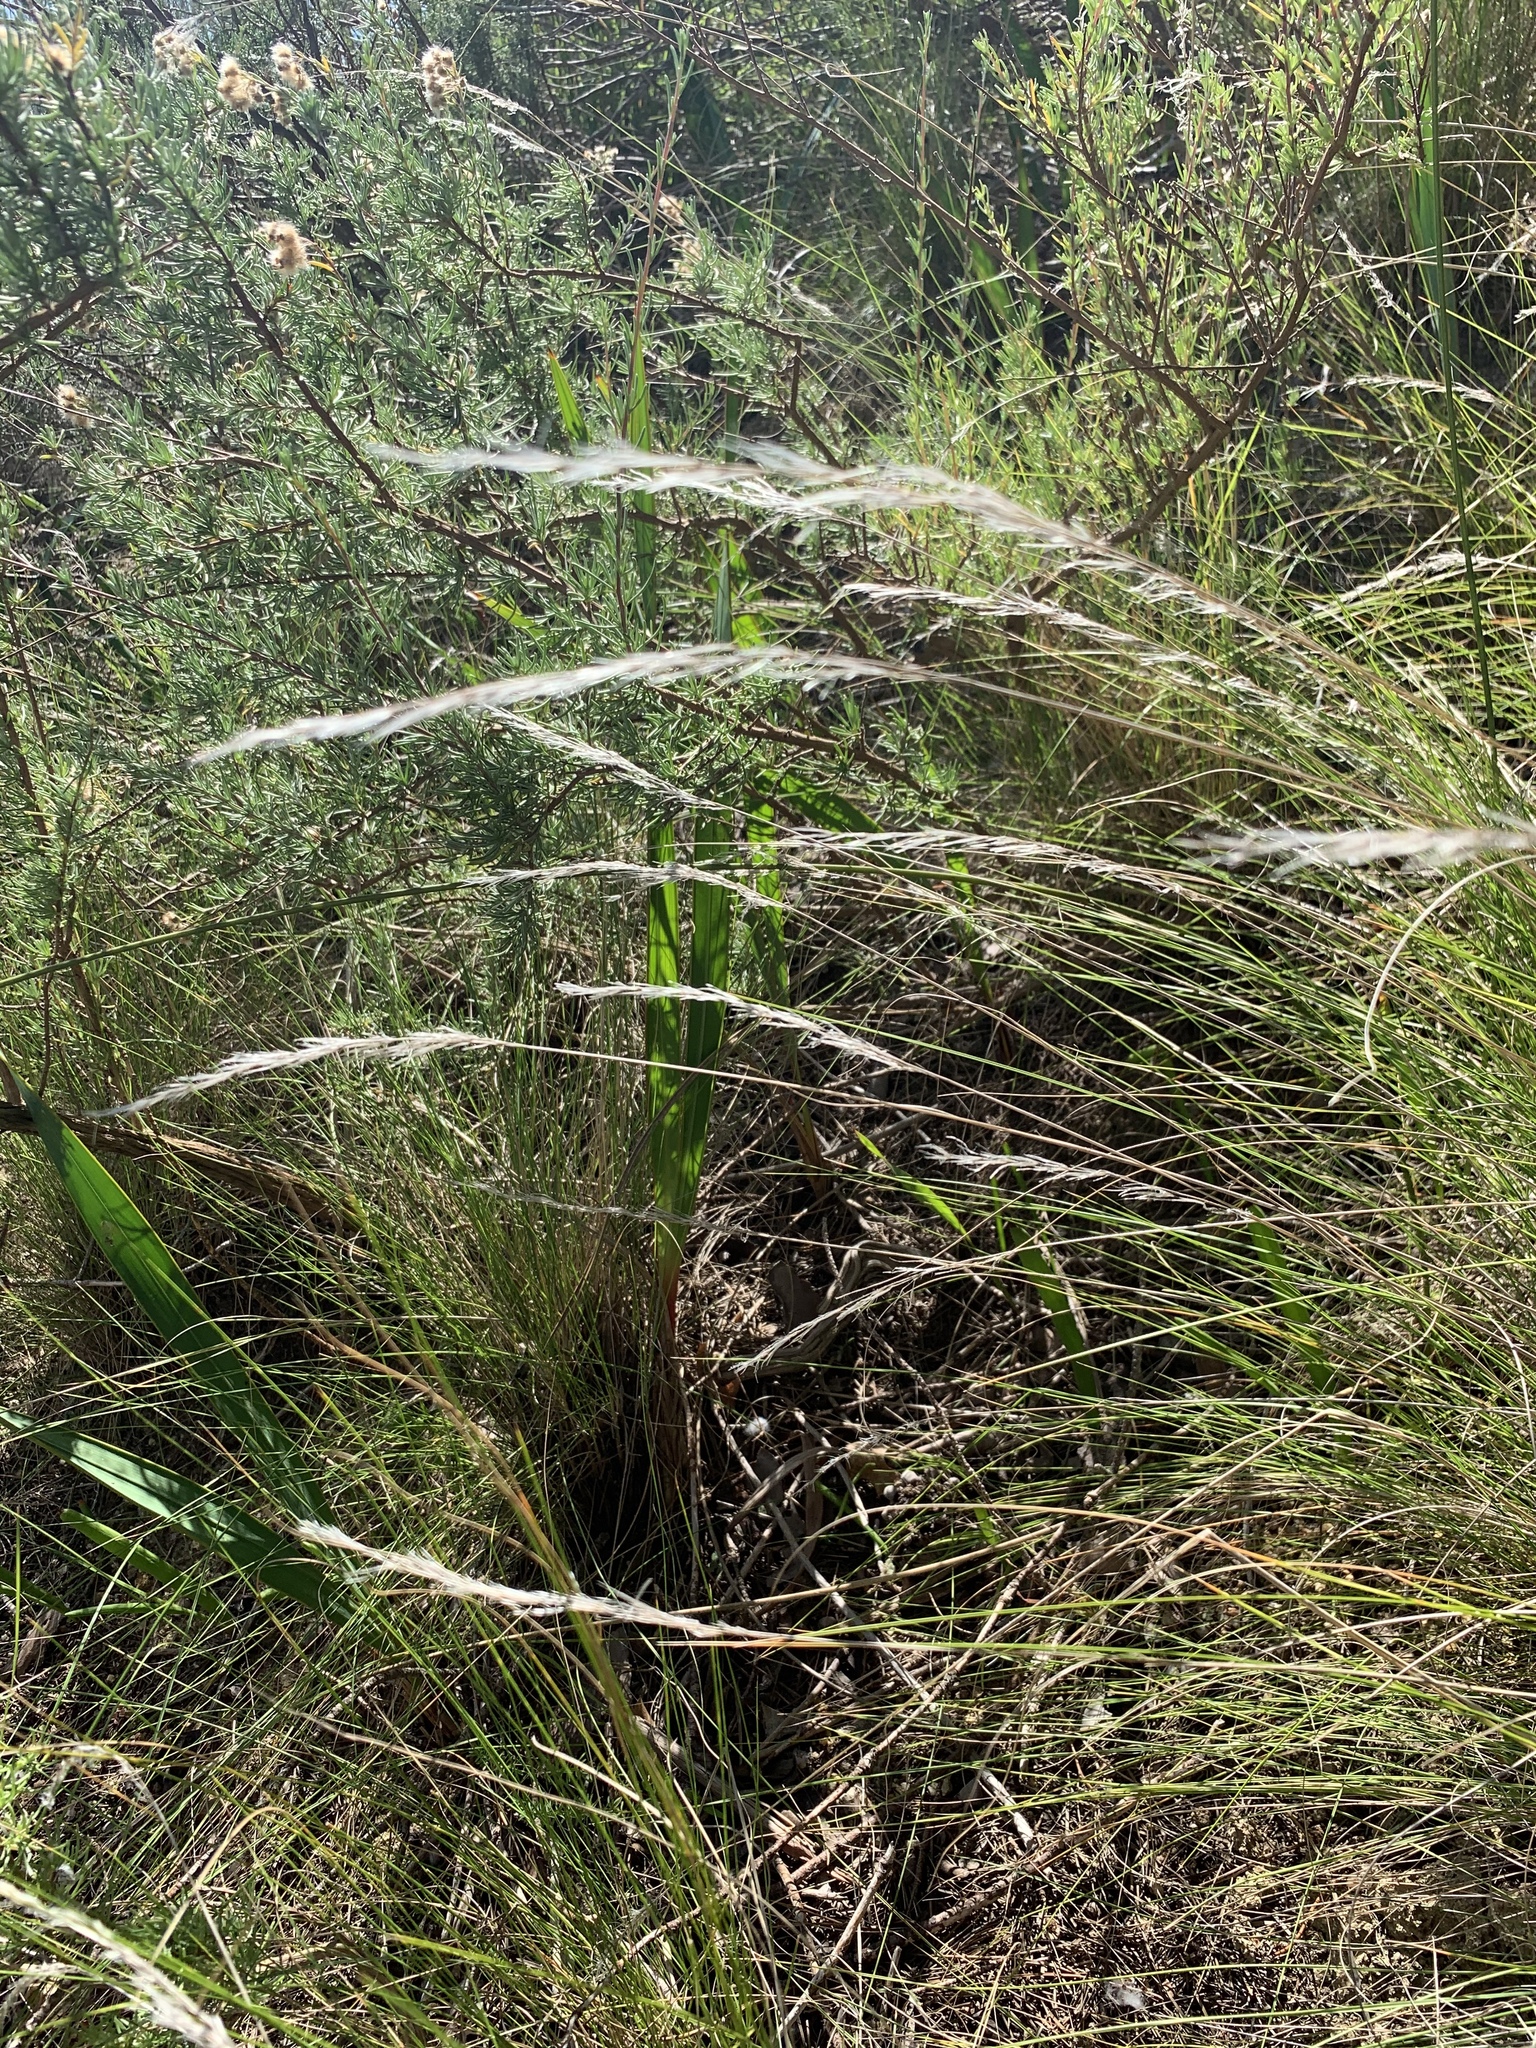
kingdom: Plantae
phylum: Tracheophyta
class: Liliopsida
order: Poales
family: Poaceae
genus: Tenaxia
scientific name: Tenaxia stricta
